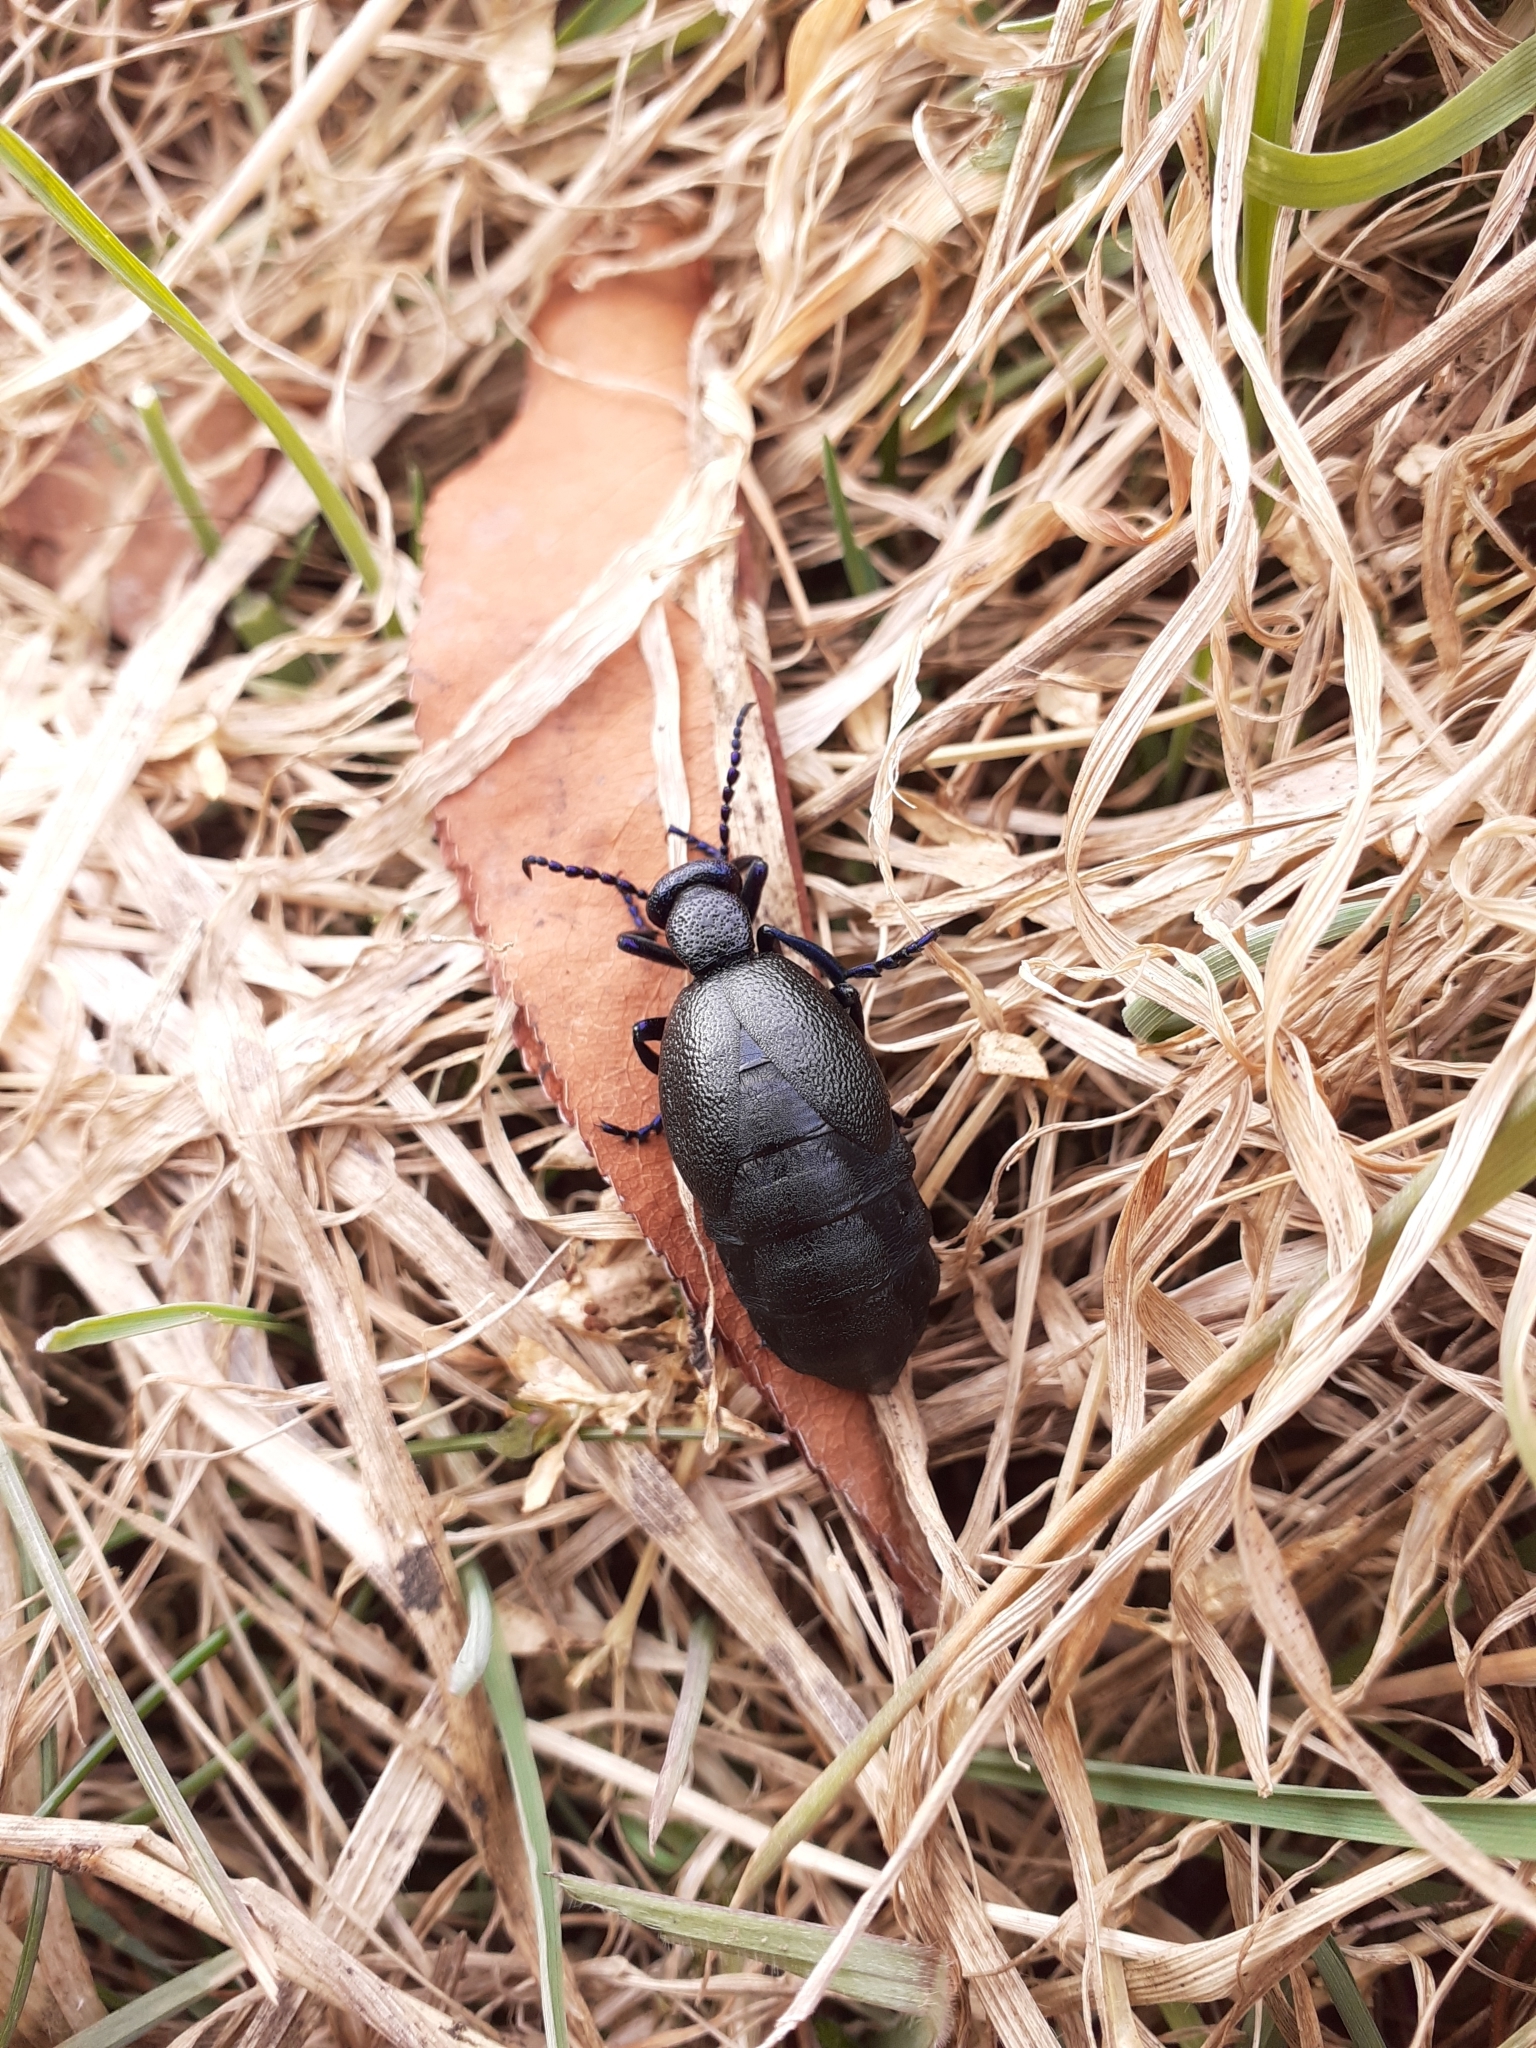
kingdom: Animalia
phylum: Arthropoda
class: Insecta
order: Coleoptera
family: Meloidae
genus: Meloe
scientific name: Meloe proscarabaeus
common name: Black oil-beetle
